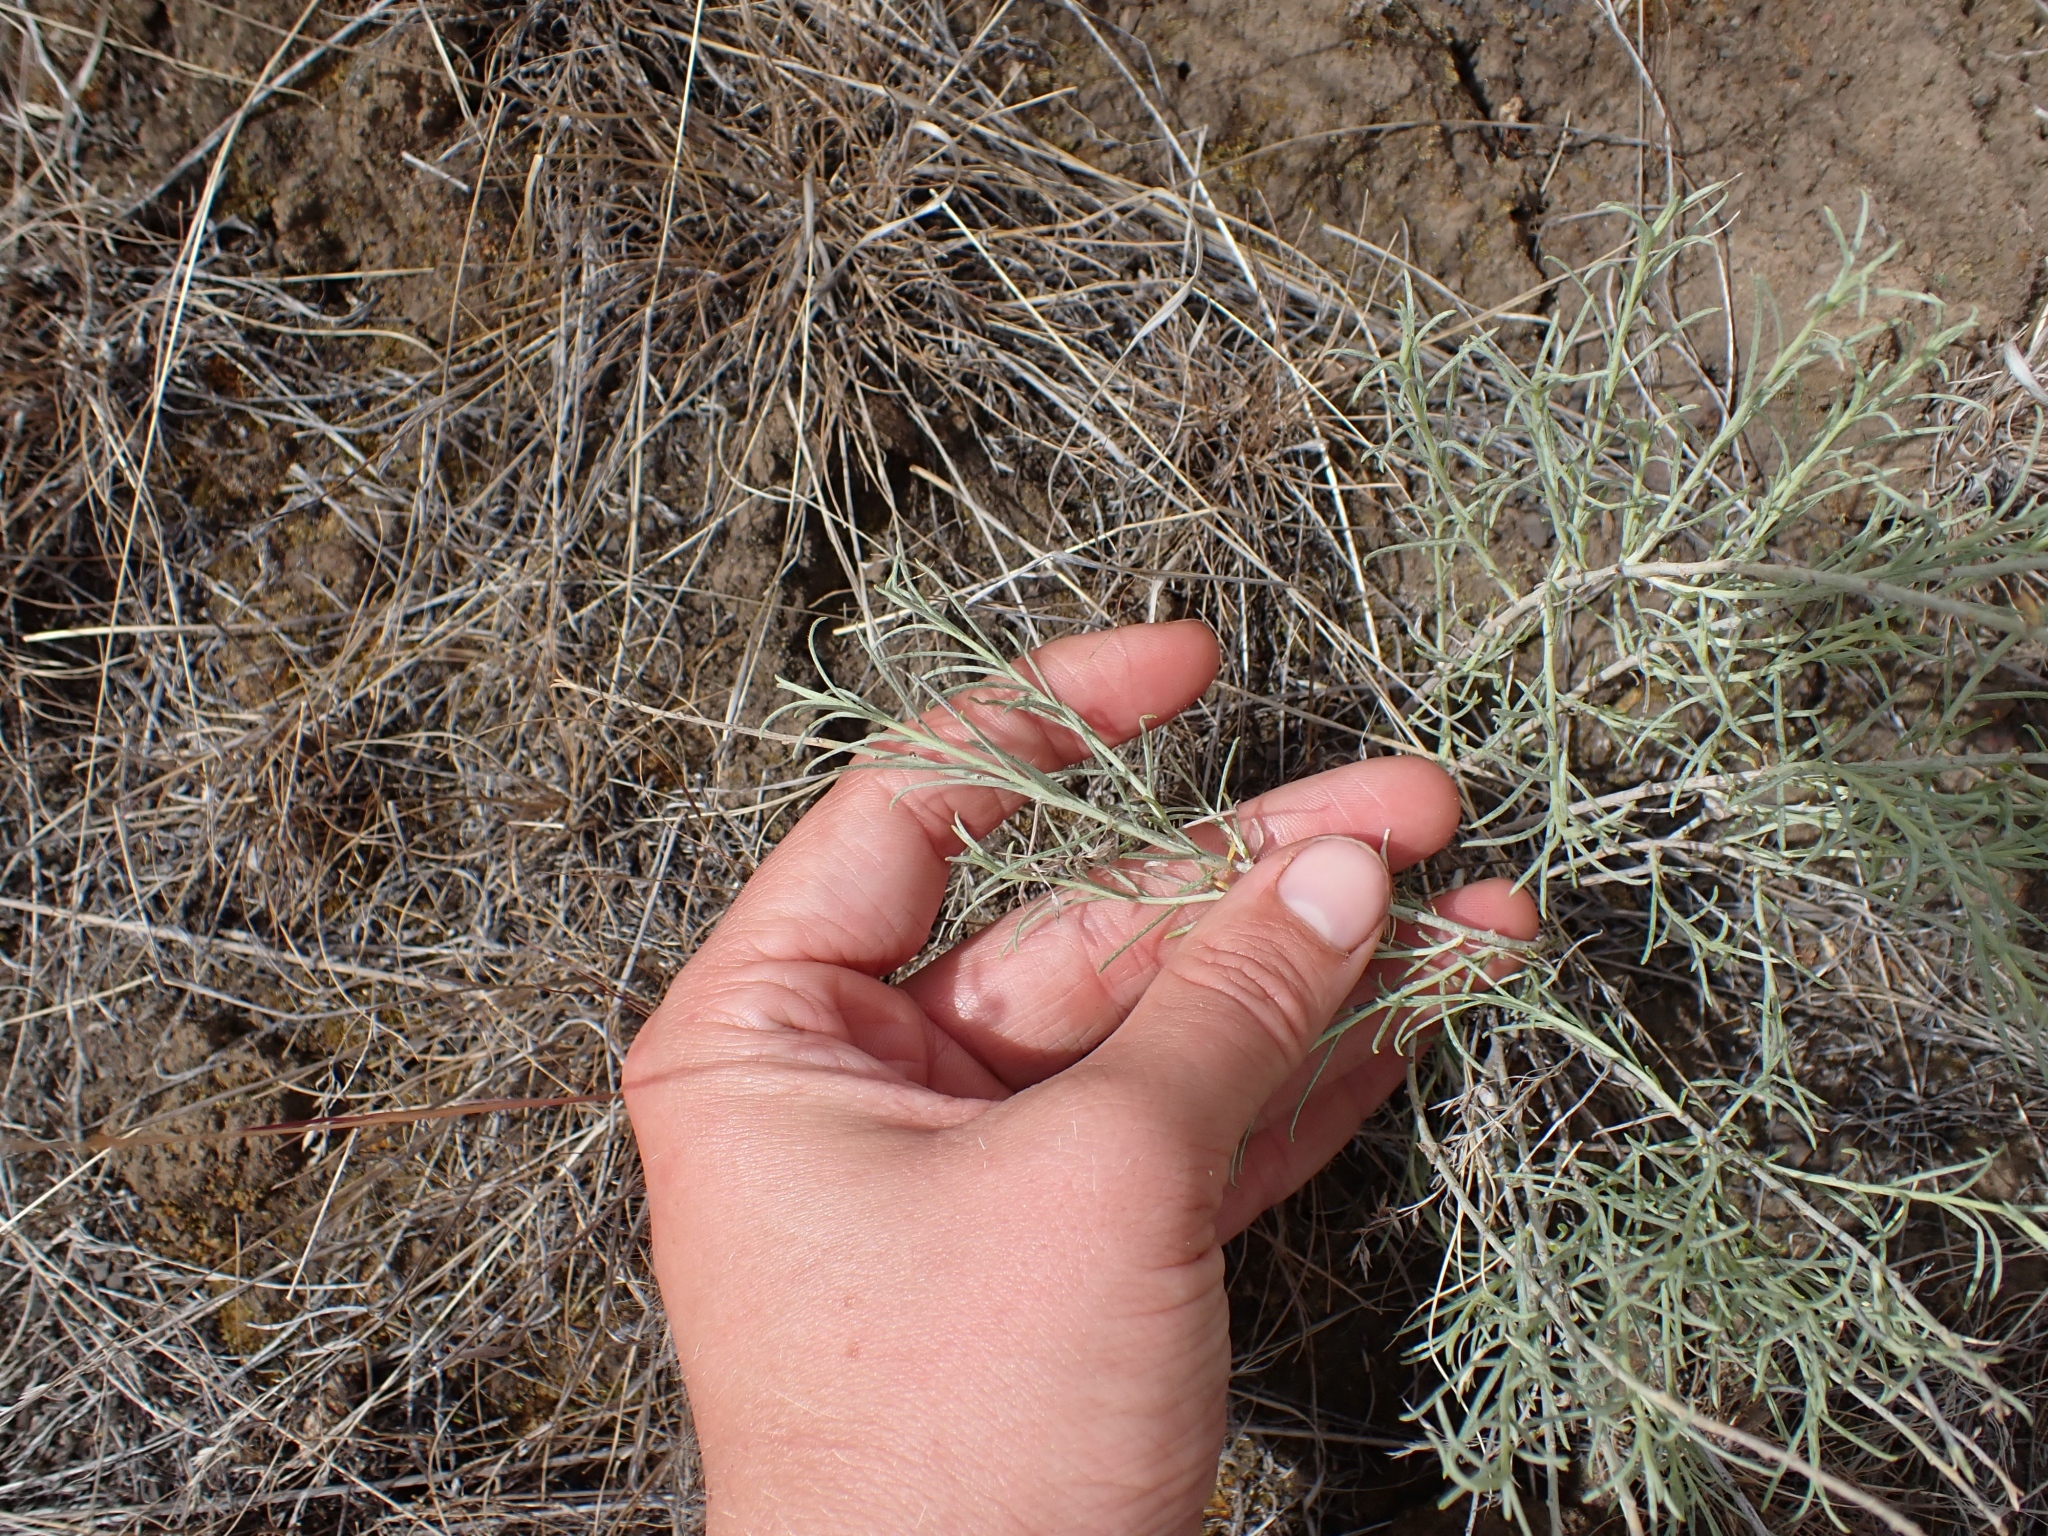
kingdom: Plantae
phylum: Tracheophyta
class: Magnoliopsida
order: Asterales
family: Asteraceae
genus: Ericameria
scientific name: Ericameria nauseosa
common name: Rubber rabbitbrush
